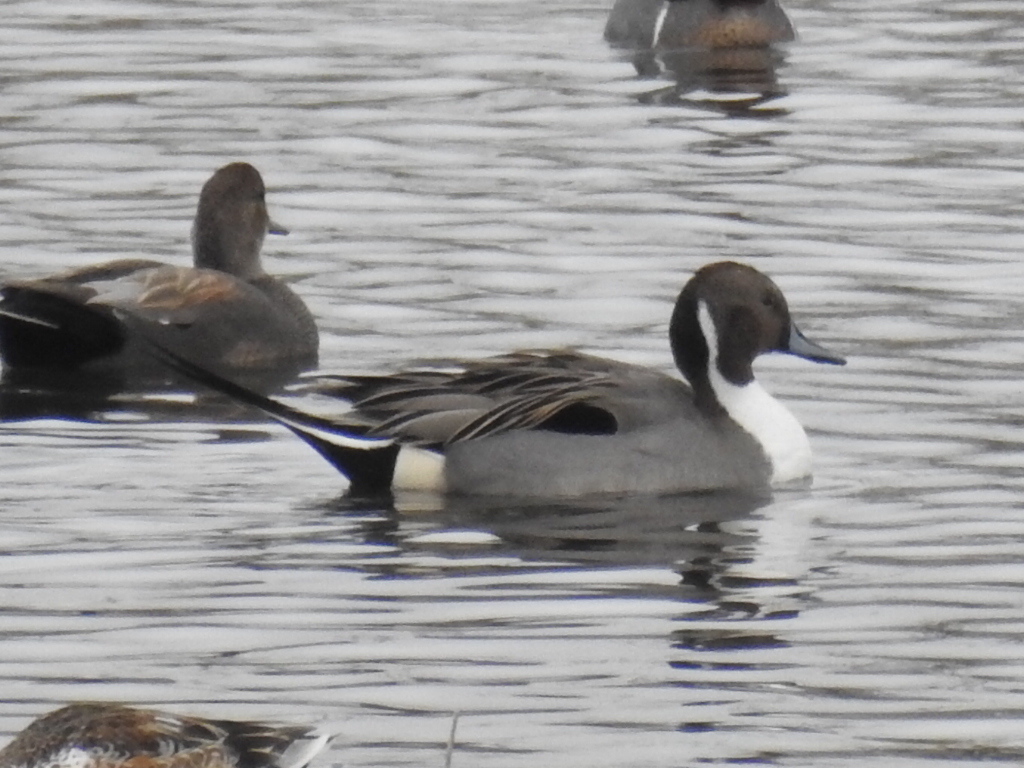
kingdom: Animalia
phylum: Chordata
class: Aves
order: Anseriformes
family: Anatidae
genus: Anas
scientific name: Anas acuta
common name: Northern pintail
